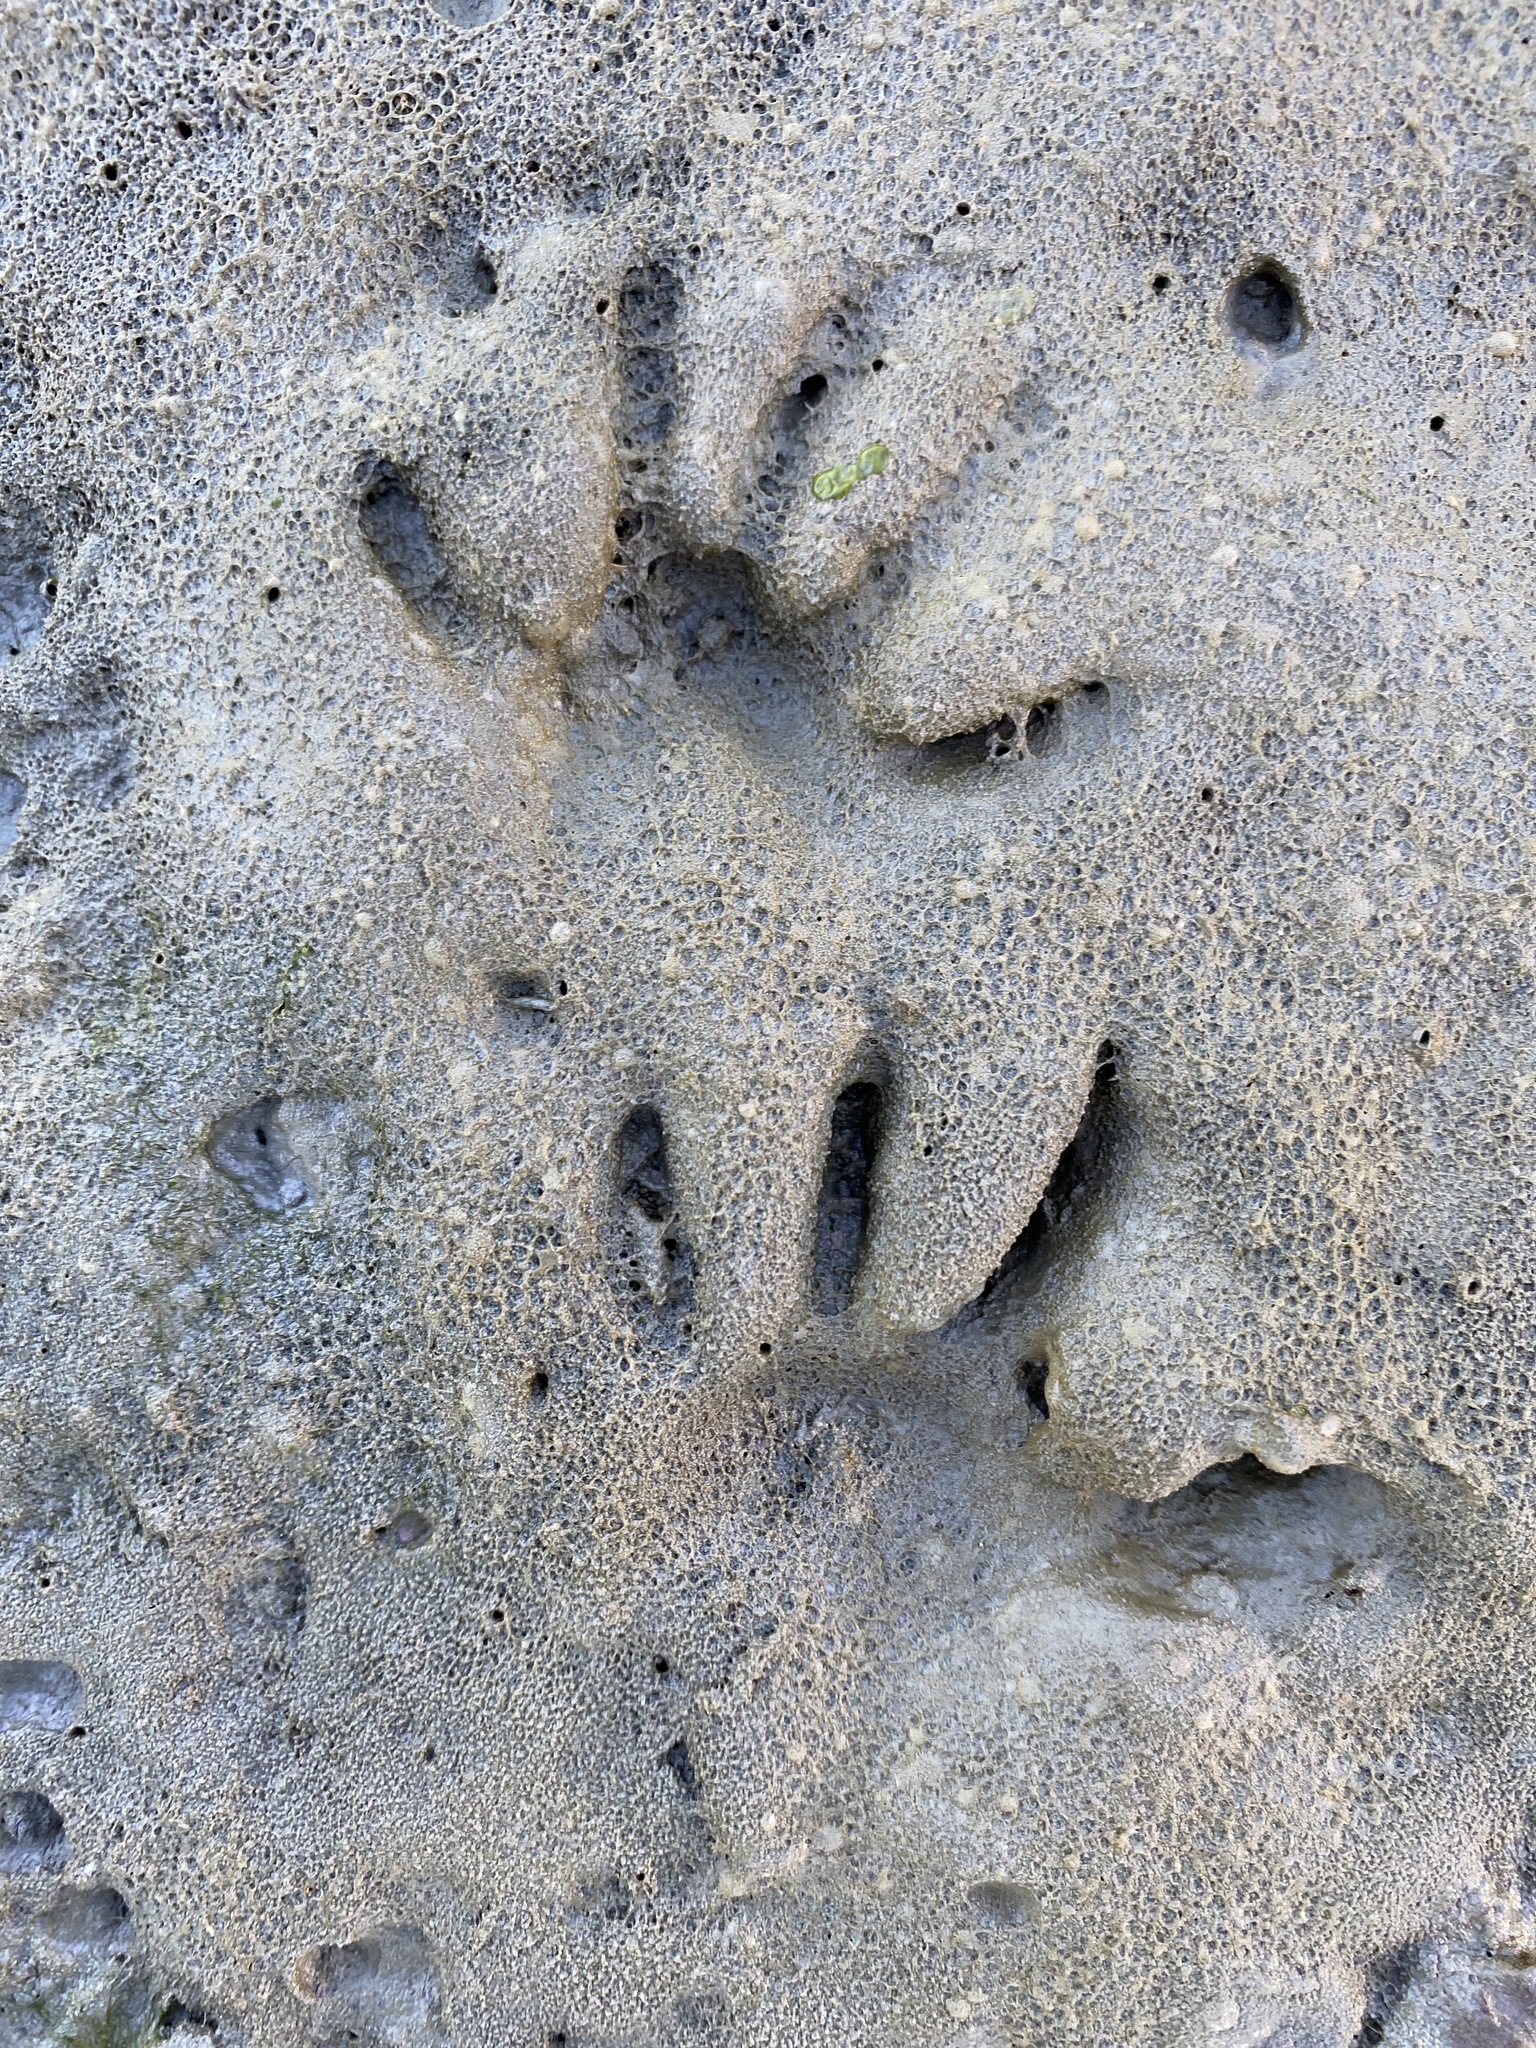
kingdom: Animalia
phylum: Chordata
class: Mammalia
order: Carnivora
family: Procyonidae
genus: Procyon
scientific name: Procyon lotor
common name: Raccoon
